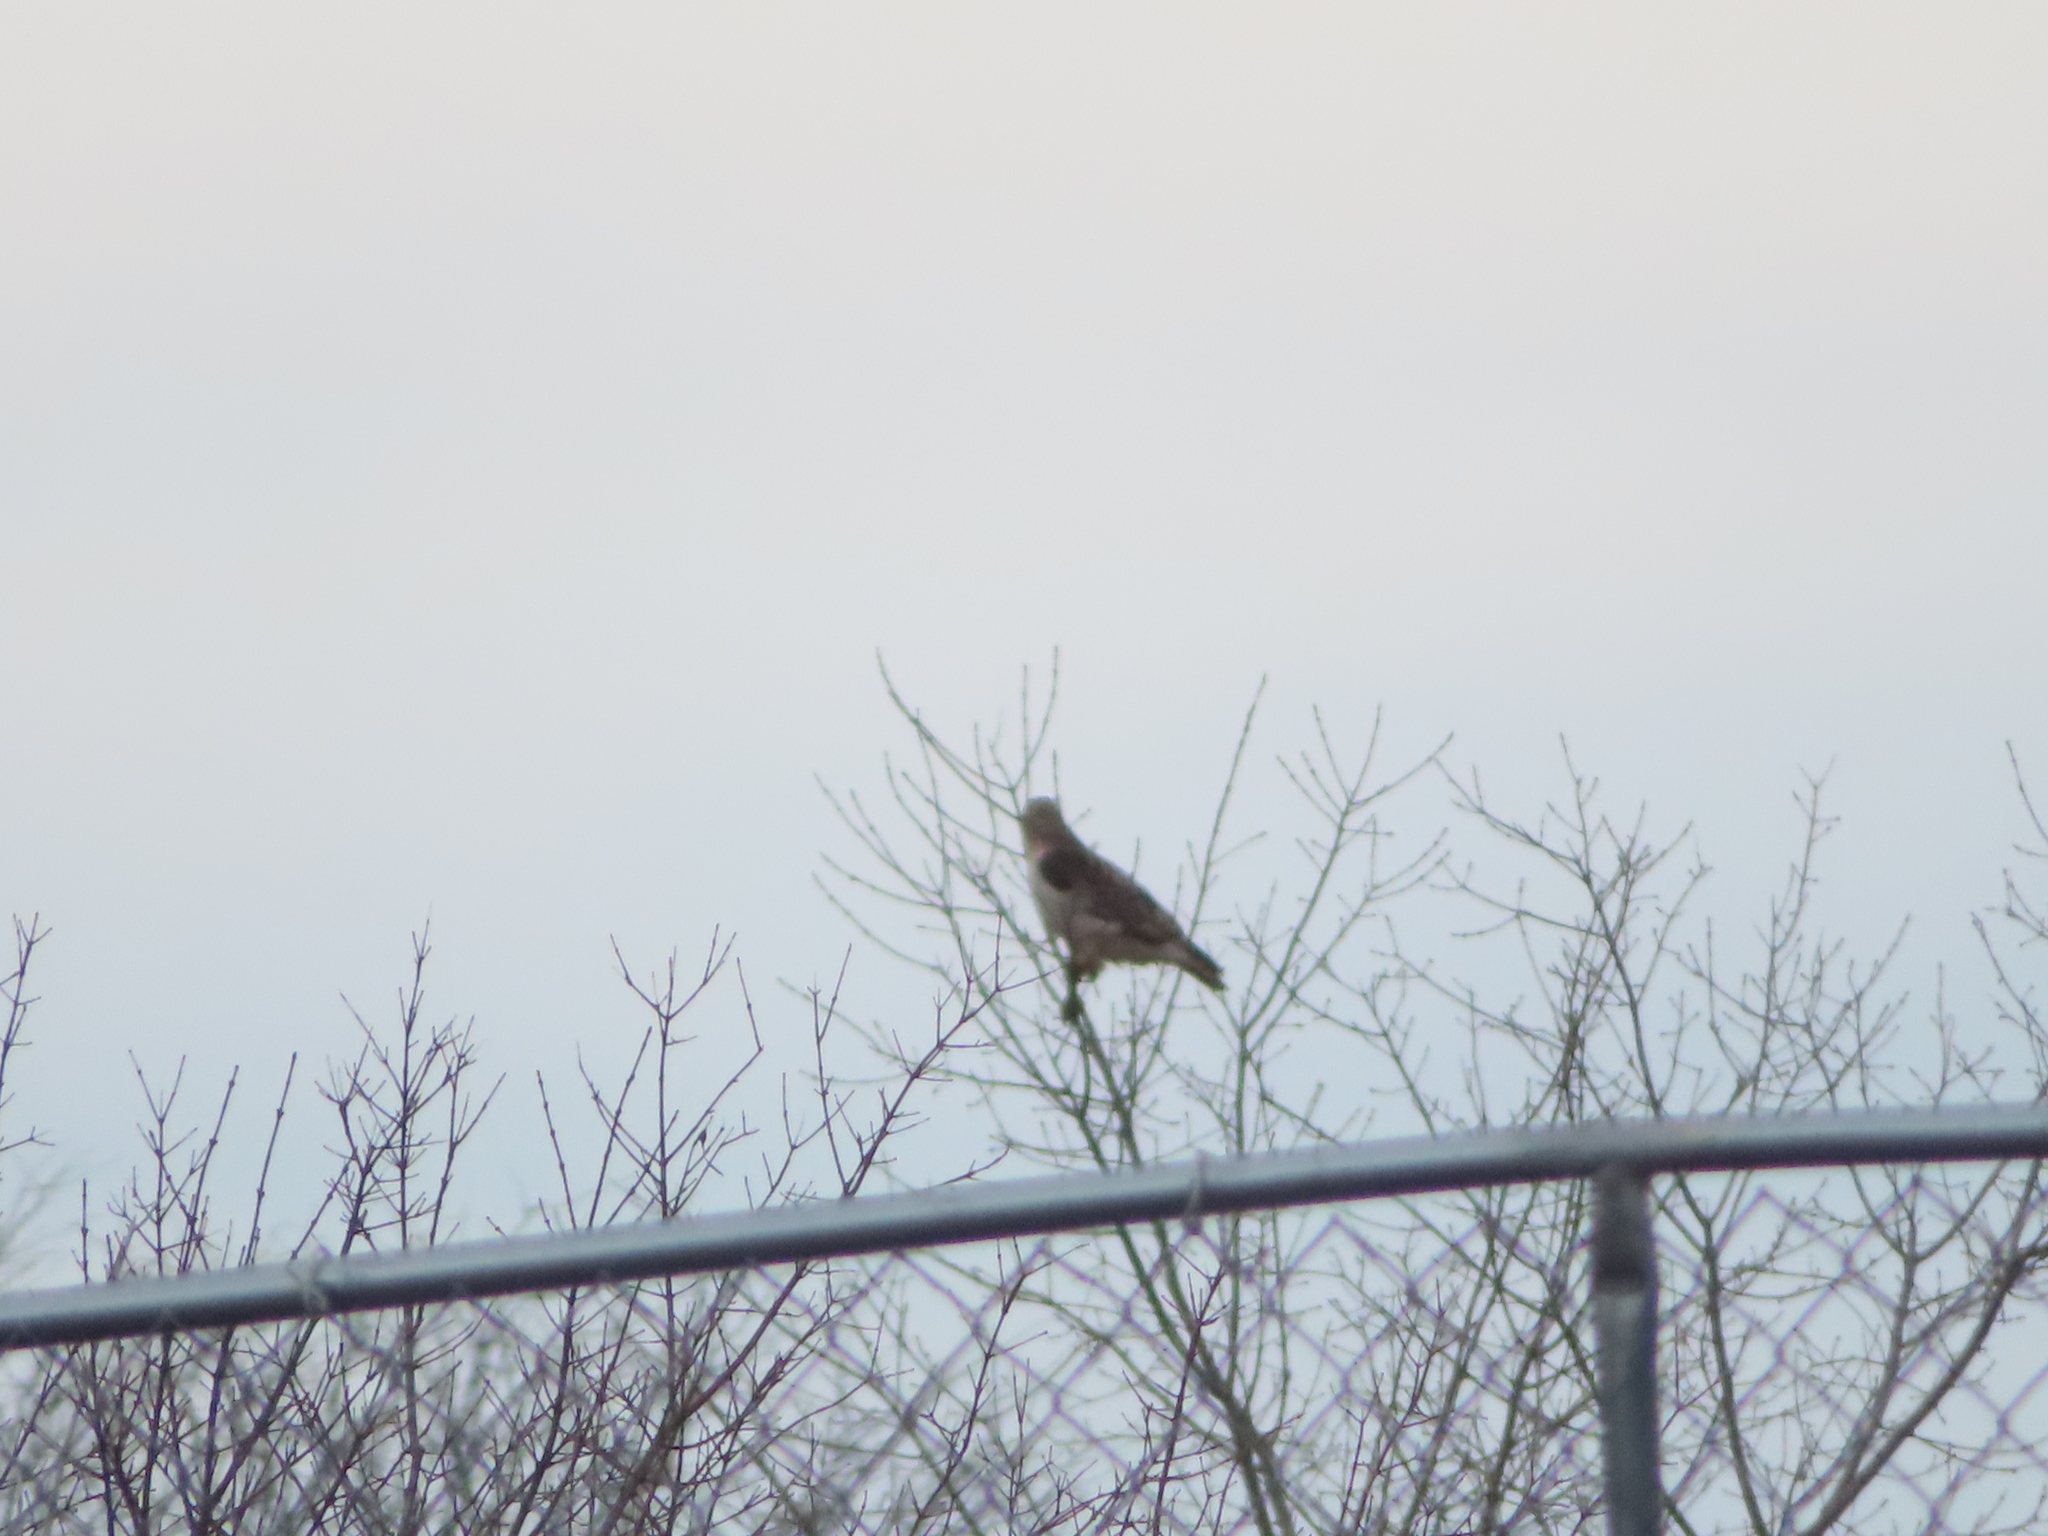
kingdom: Animalia
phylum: Chordata
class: Aves
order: Accipitriformes
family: Accipitridae
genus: Buteo
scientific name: Buteo jamaicensis
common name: Red-tailed hawk
